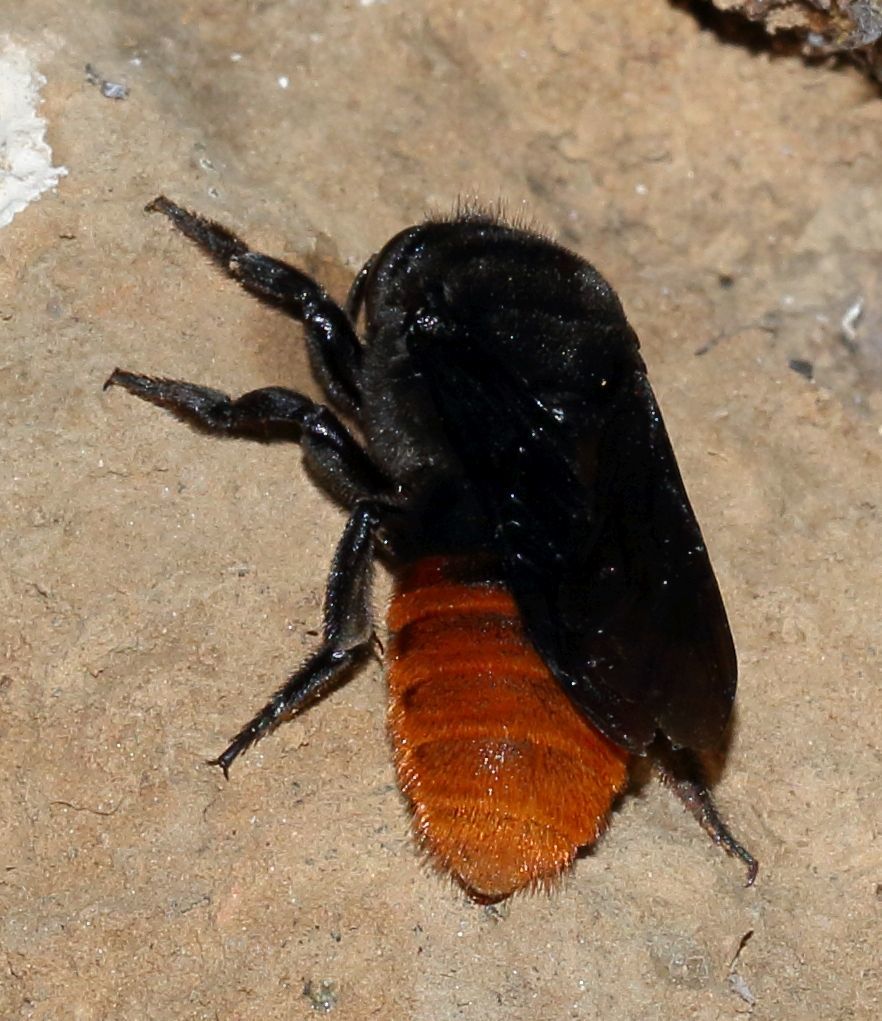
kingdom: Animalia
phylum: Arthropoda
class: Insecta
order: Hymenoptera
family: Megachilidae
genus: Gronoceras
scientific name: Gronoceras cinctum
